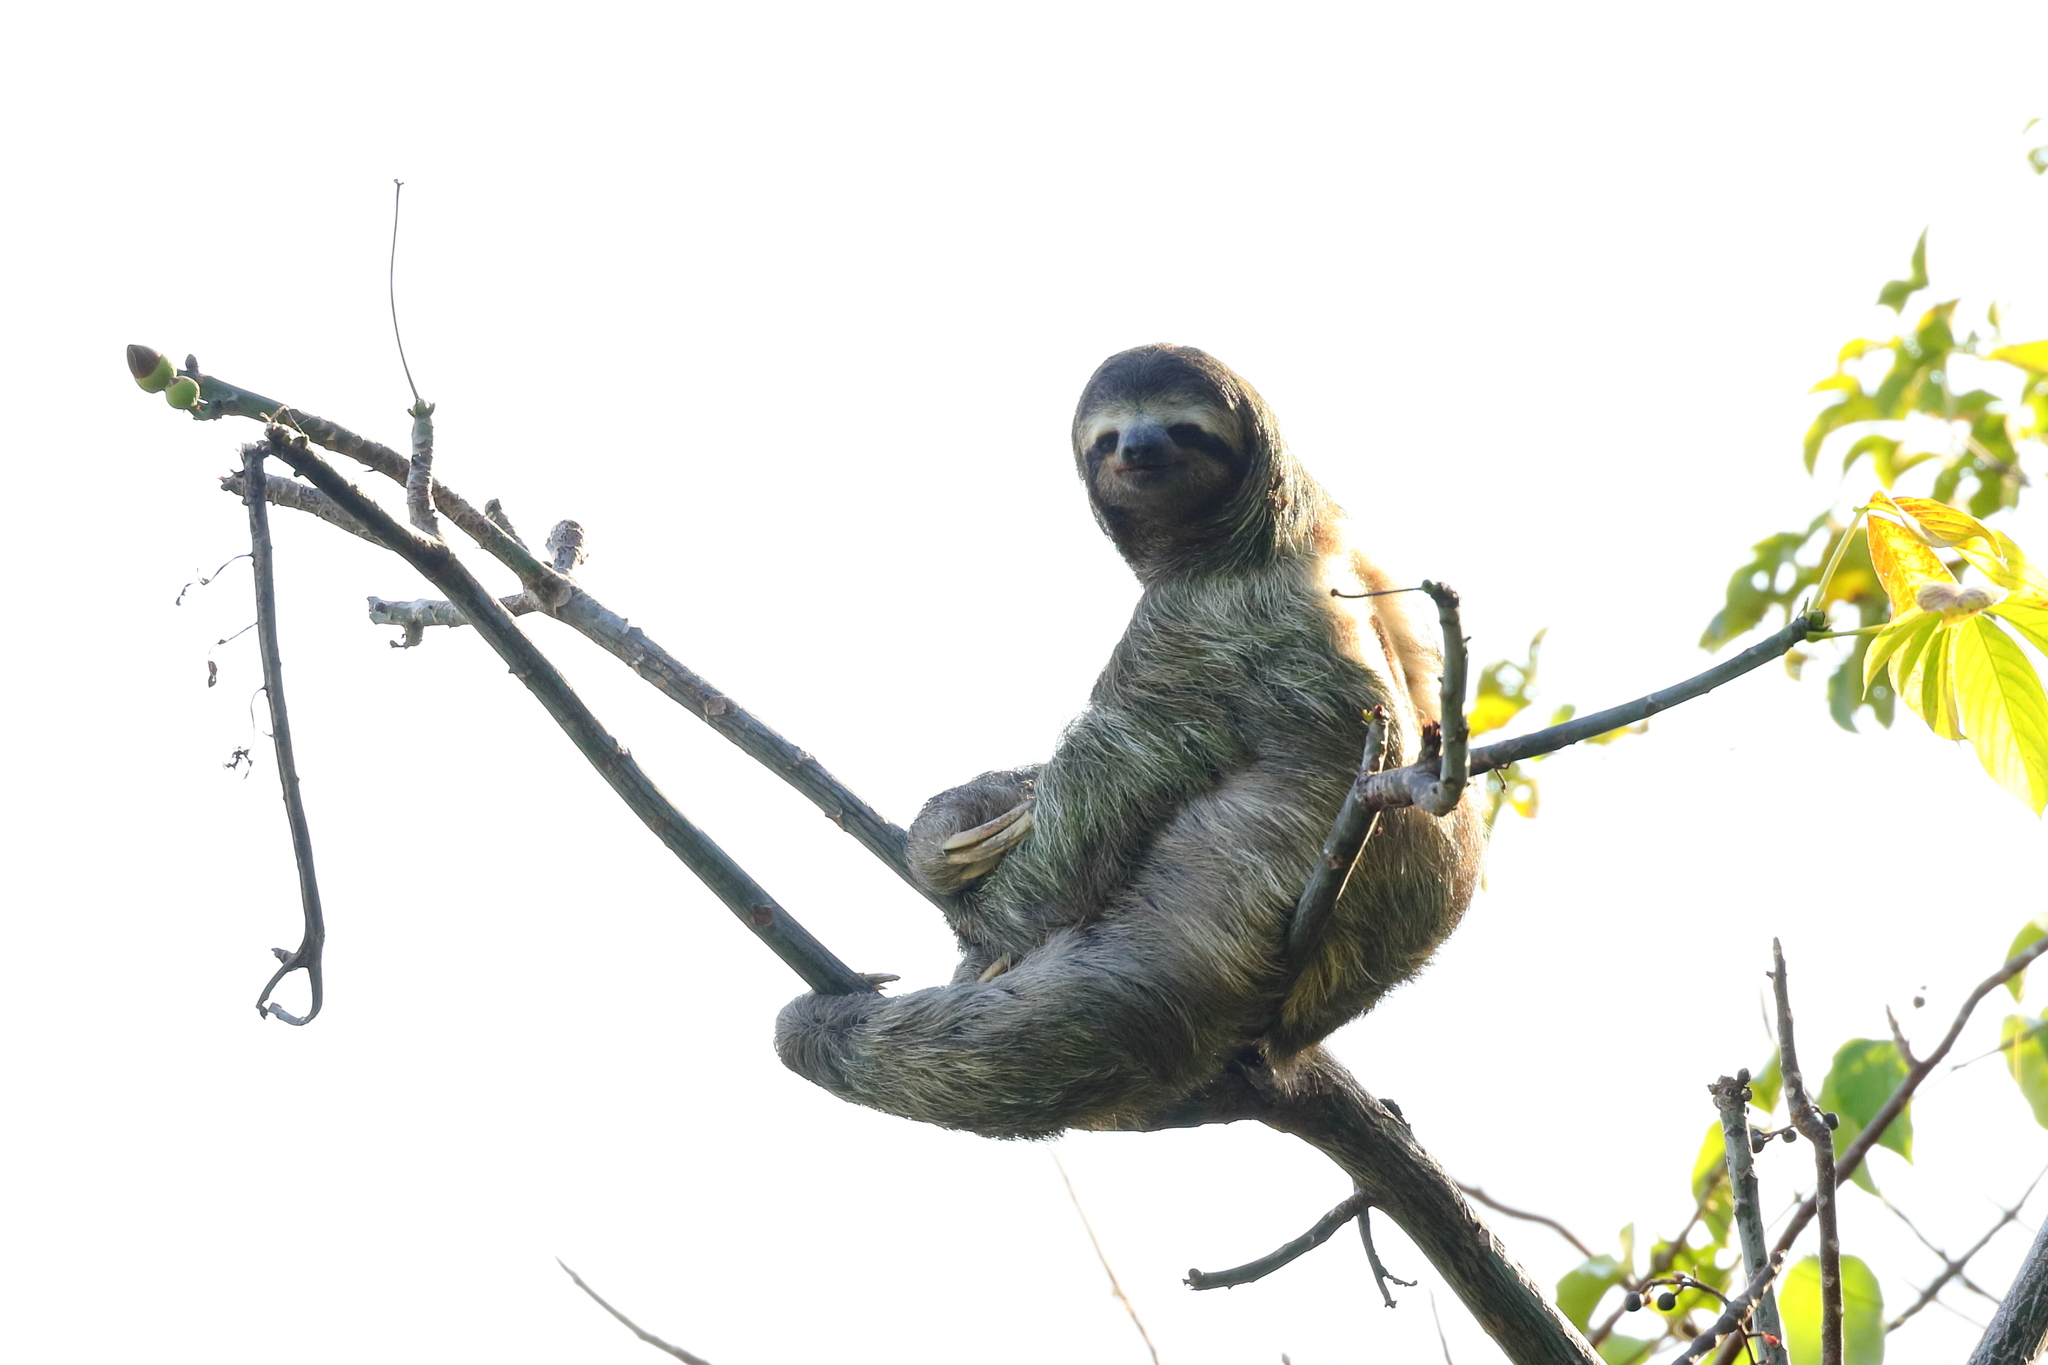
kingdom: Animalia
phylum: Chordata
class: Mammalia
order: Pilosa
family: Bradypodidae
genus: Bradypus
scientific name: Bradypus variegatus
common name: Brown-throated three-toed sloth
